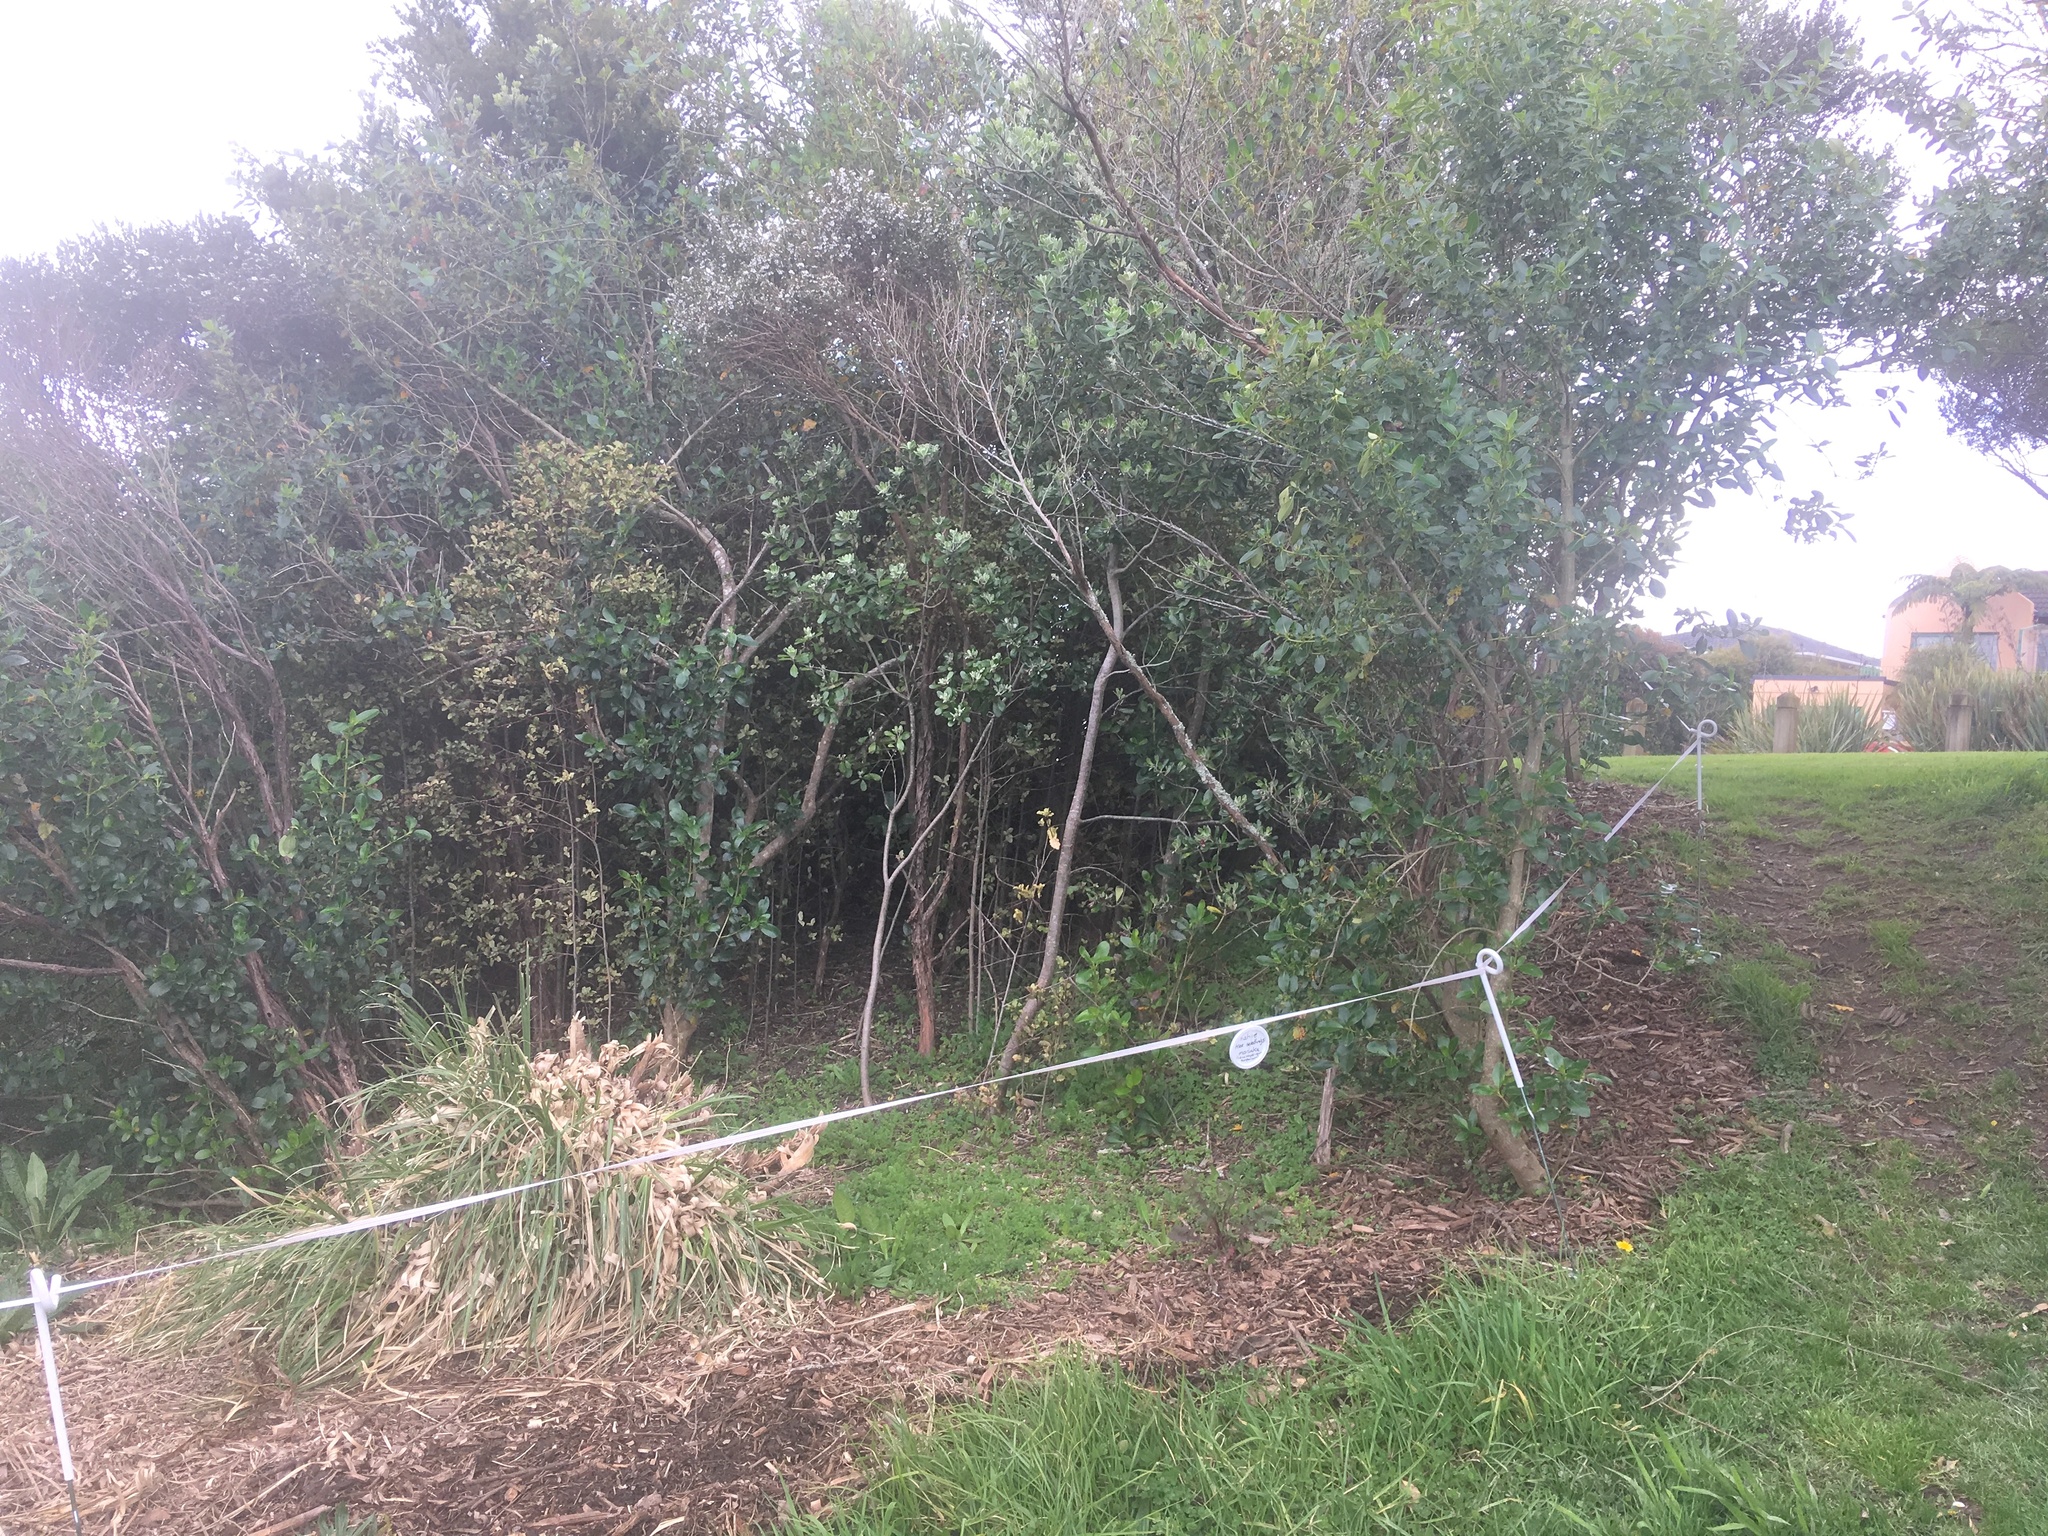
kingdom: Plantae
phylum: Tracheophyta
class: Liliopsida
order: Poales
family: Poaceae
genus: Cenchrus
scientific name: Cenchrus clandestinus
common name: Kikuyugrass
